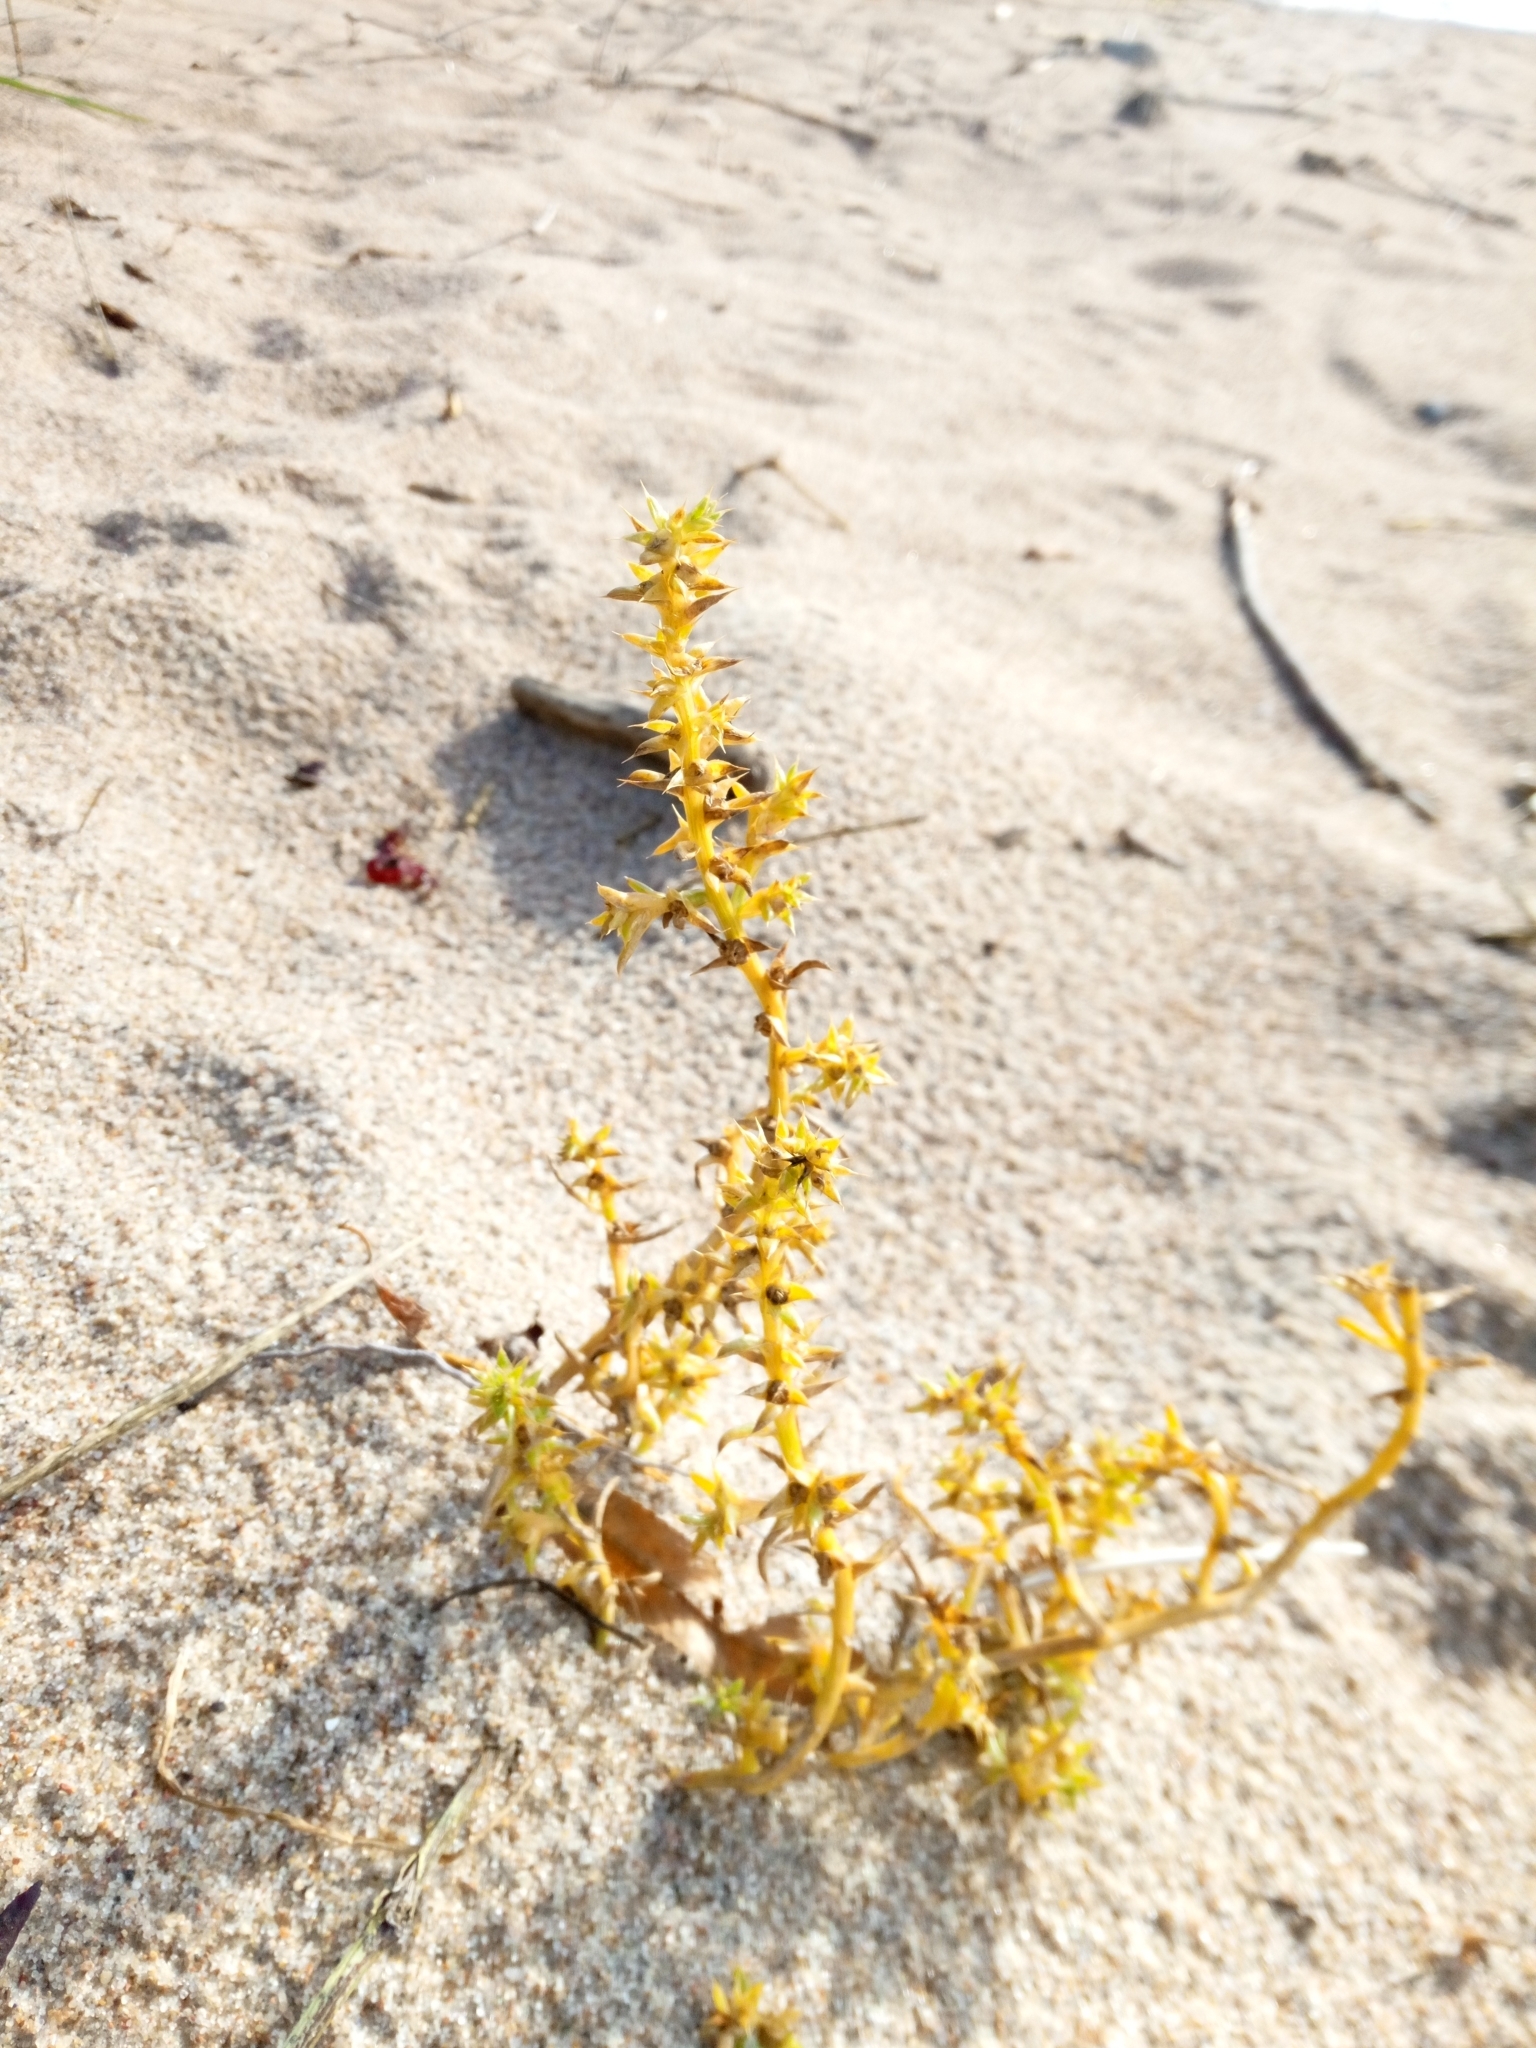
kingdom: Plantae
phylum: Tracheophyta
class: Magnoliopsida
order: Caryophyllales
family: Amaranthaceae
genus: Salsola
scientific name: Salsola kali
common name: Saltwort
